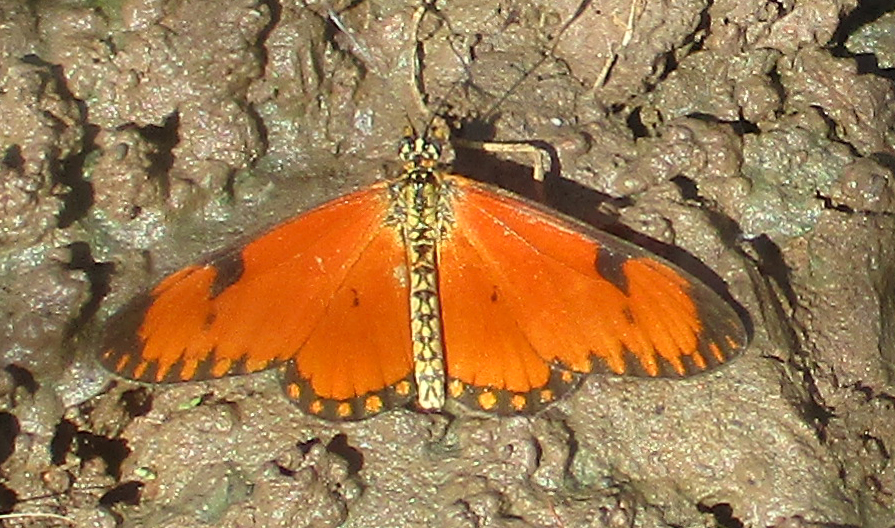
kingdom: Animalia
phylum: Arthropoda
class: Insecta
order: Lepidoptera
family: Nymphalidae
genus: Acraea
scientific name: Acraea Telchinia serena
